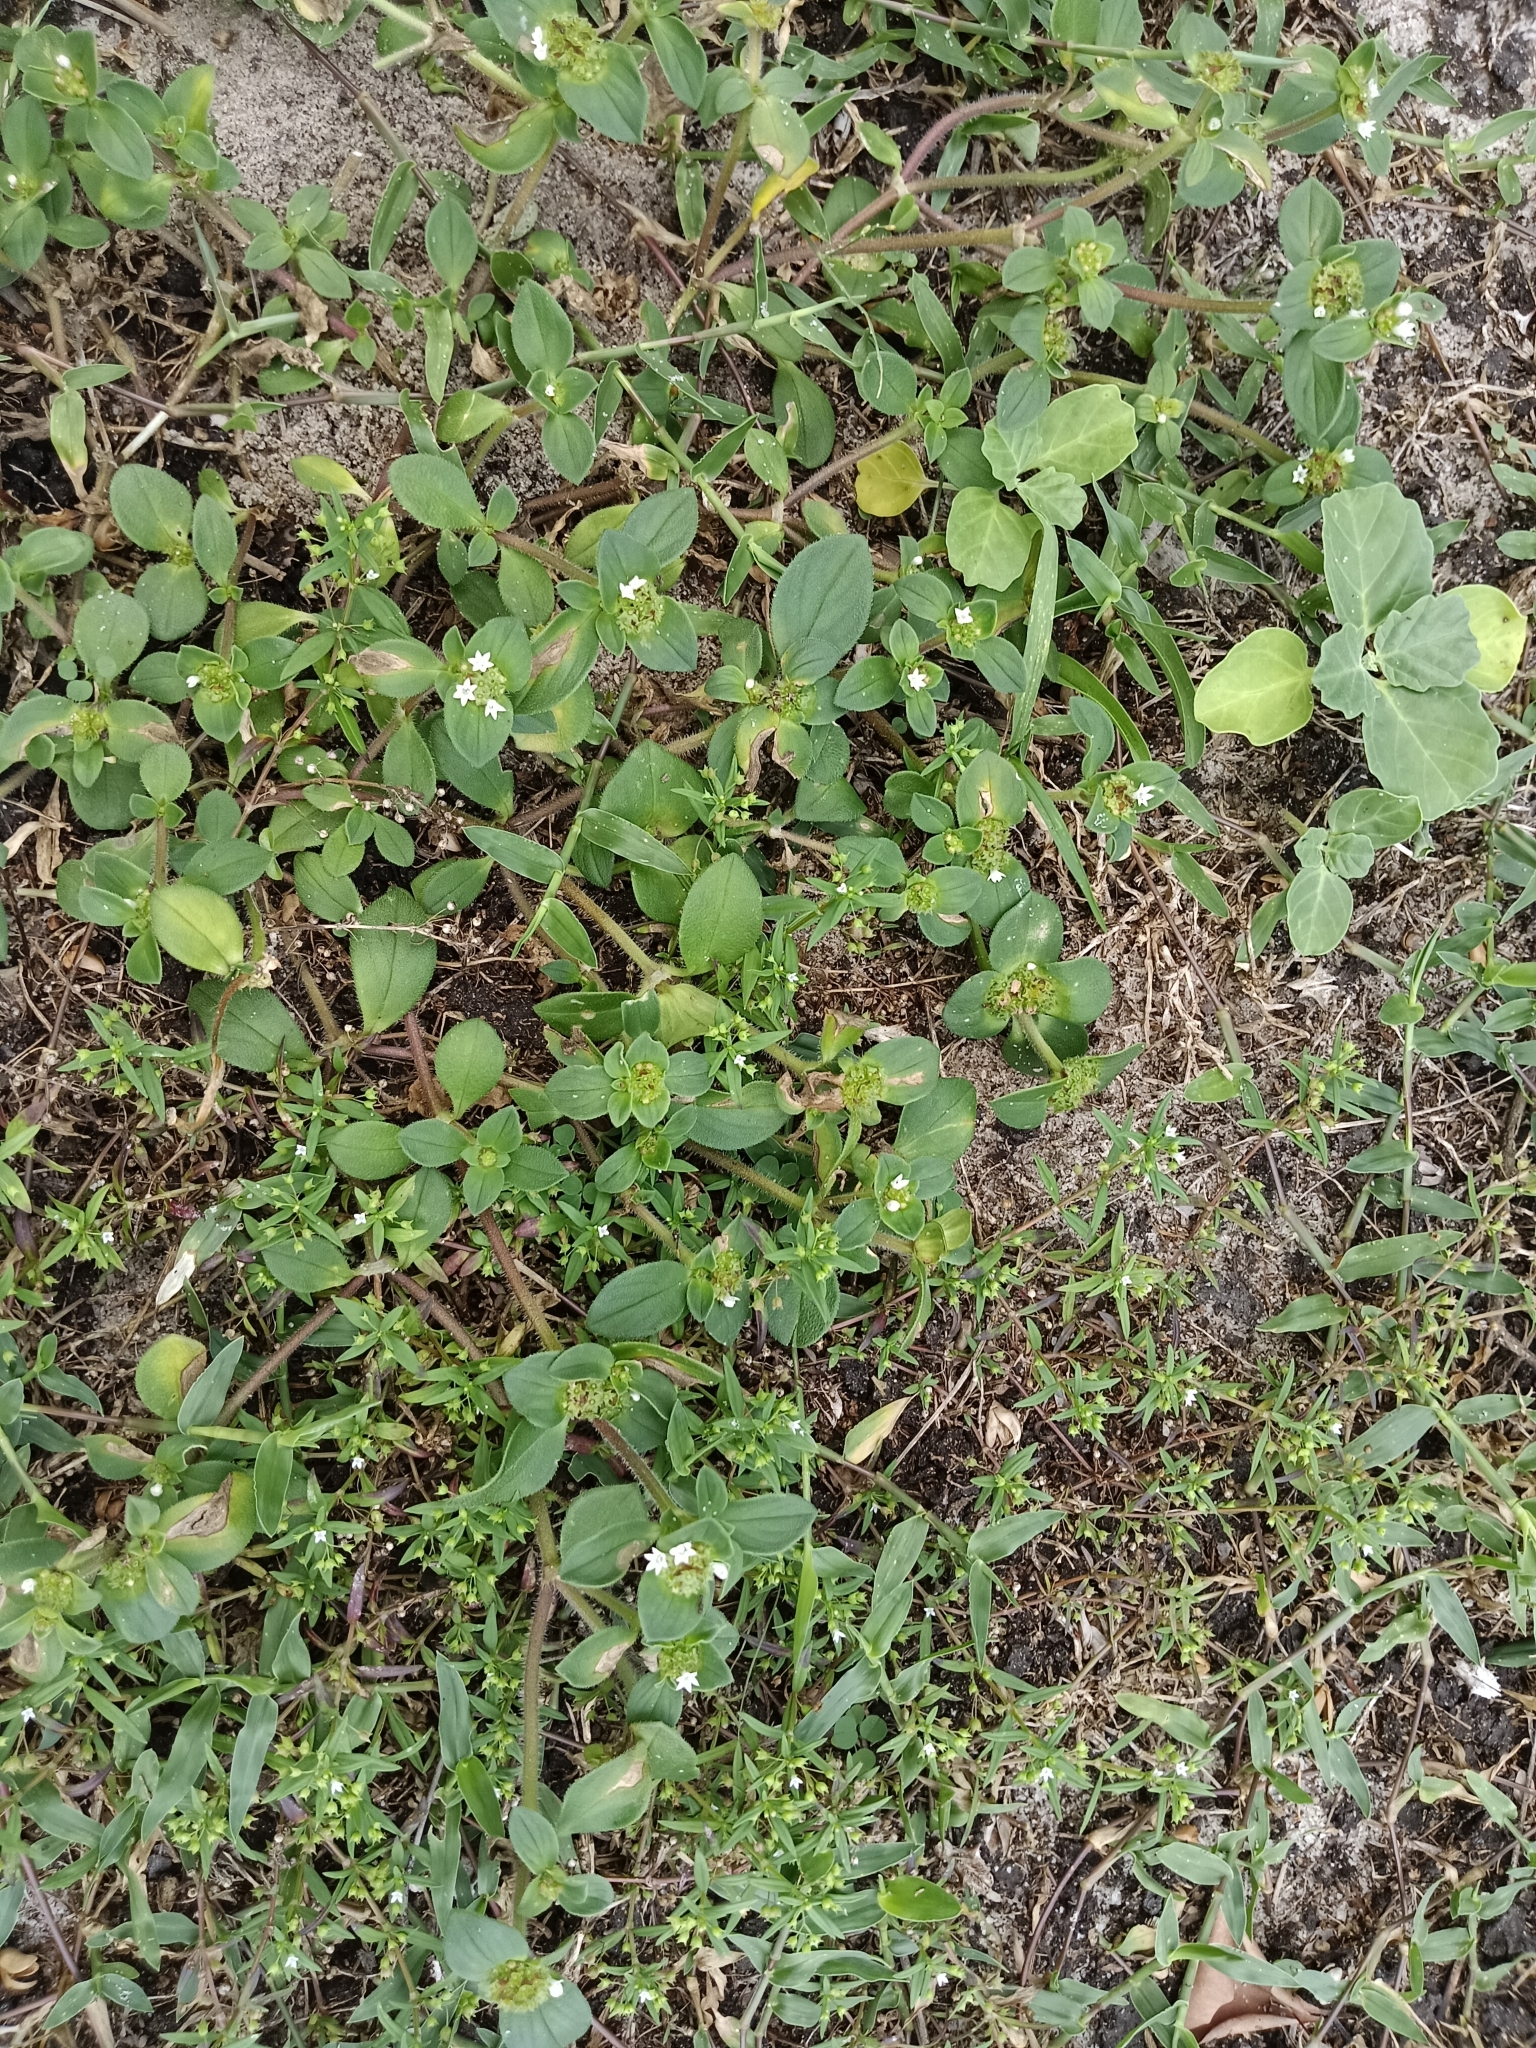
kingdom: Plantae
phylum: Tracheophyta
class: Magnoliopsida
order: Gentianales
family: Rubiaceae
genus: Mitracarpus
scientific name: Mitracarpus hirtus
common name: Tropical girdlepod
